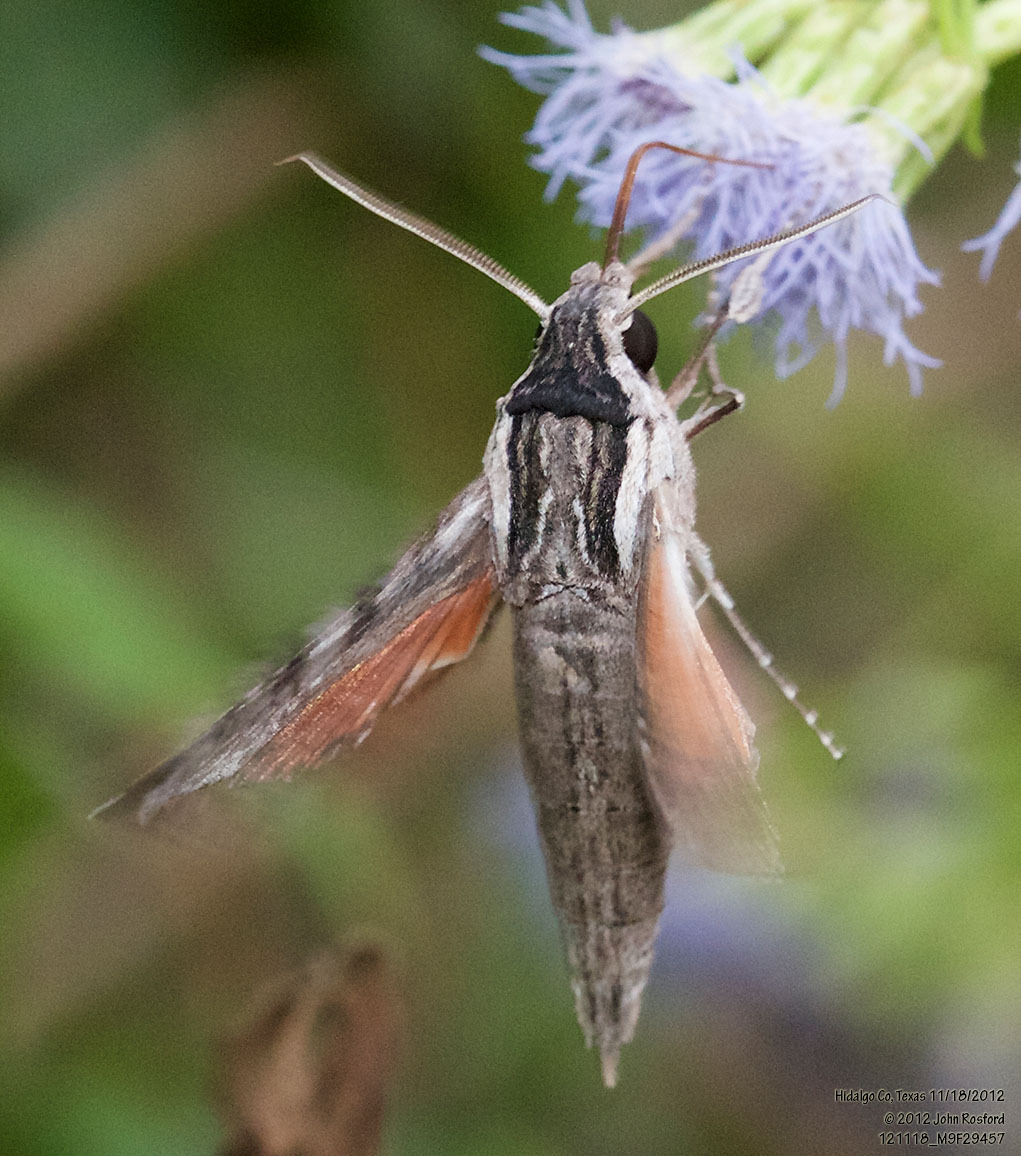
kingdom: Animalia
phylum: Arthropoda
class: Insecta
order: Lepidoptera
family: Sphingidae
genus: Erinnyis
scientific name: Erinnyis obscura
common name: Obscure sphinx
